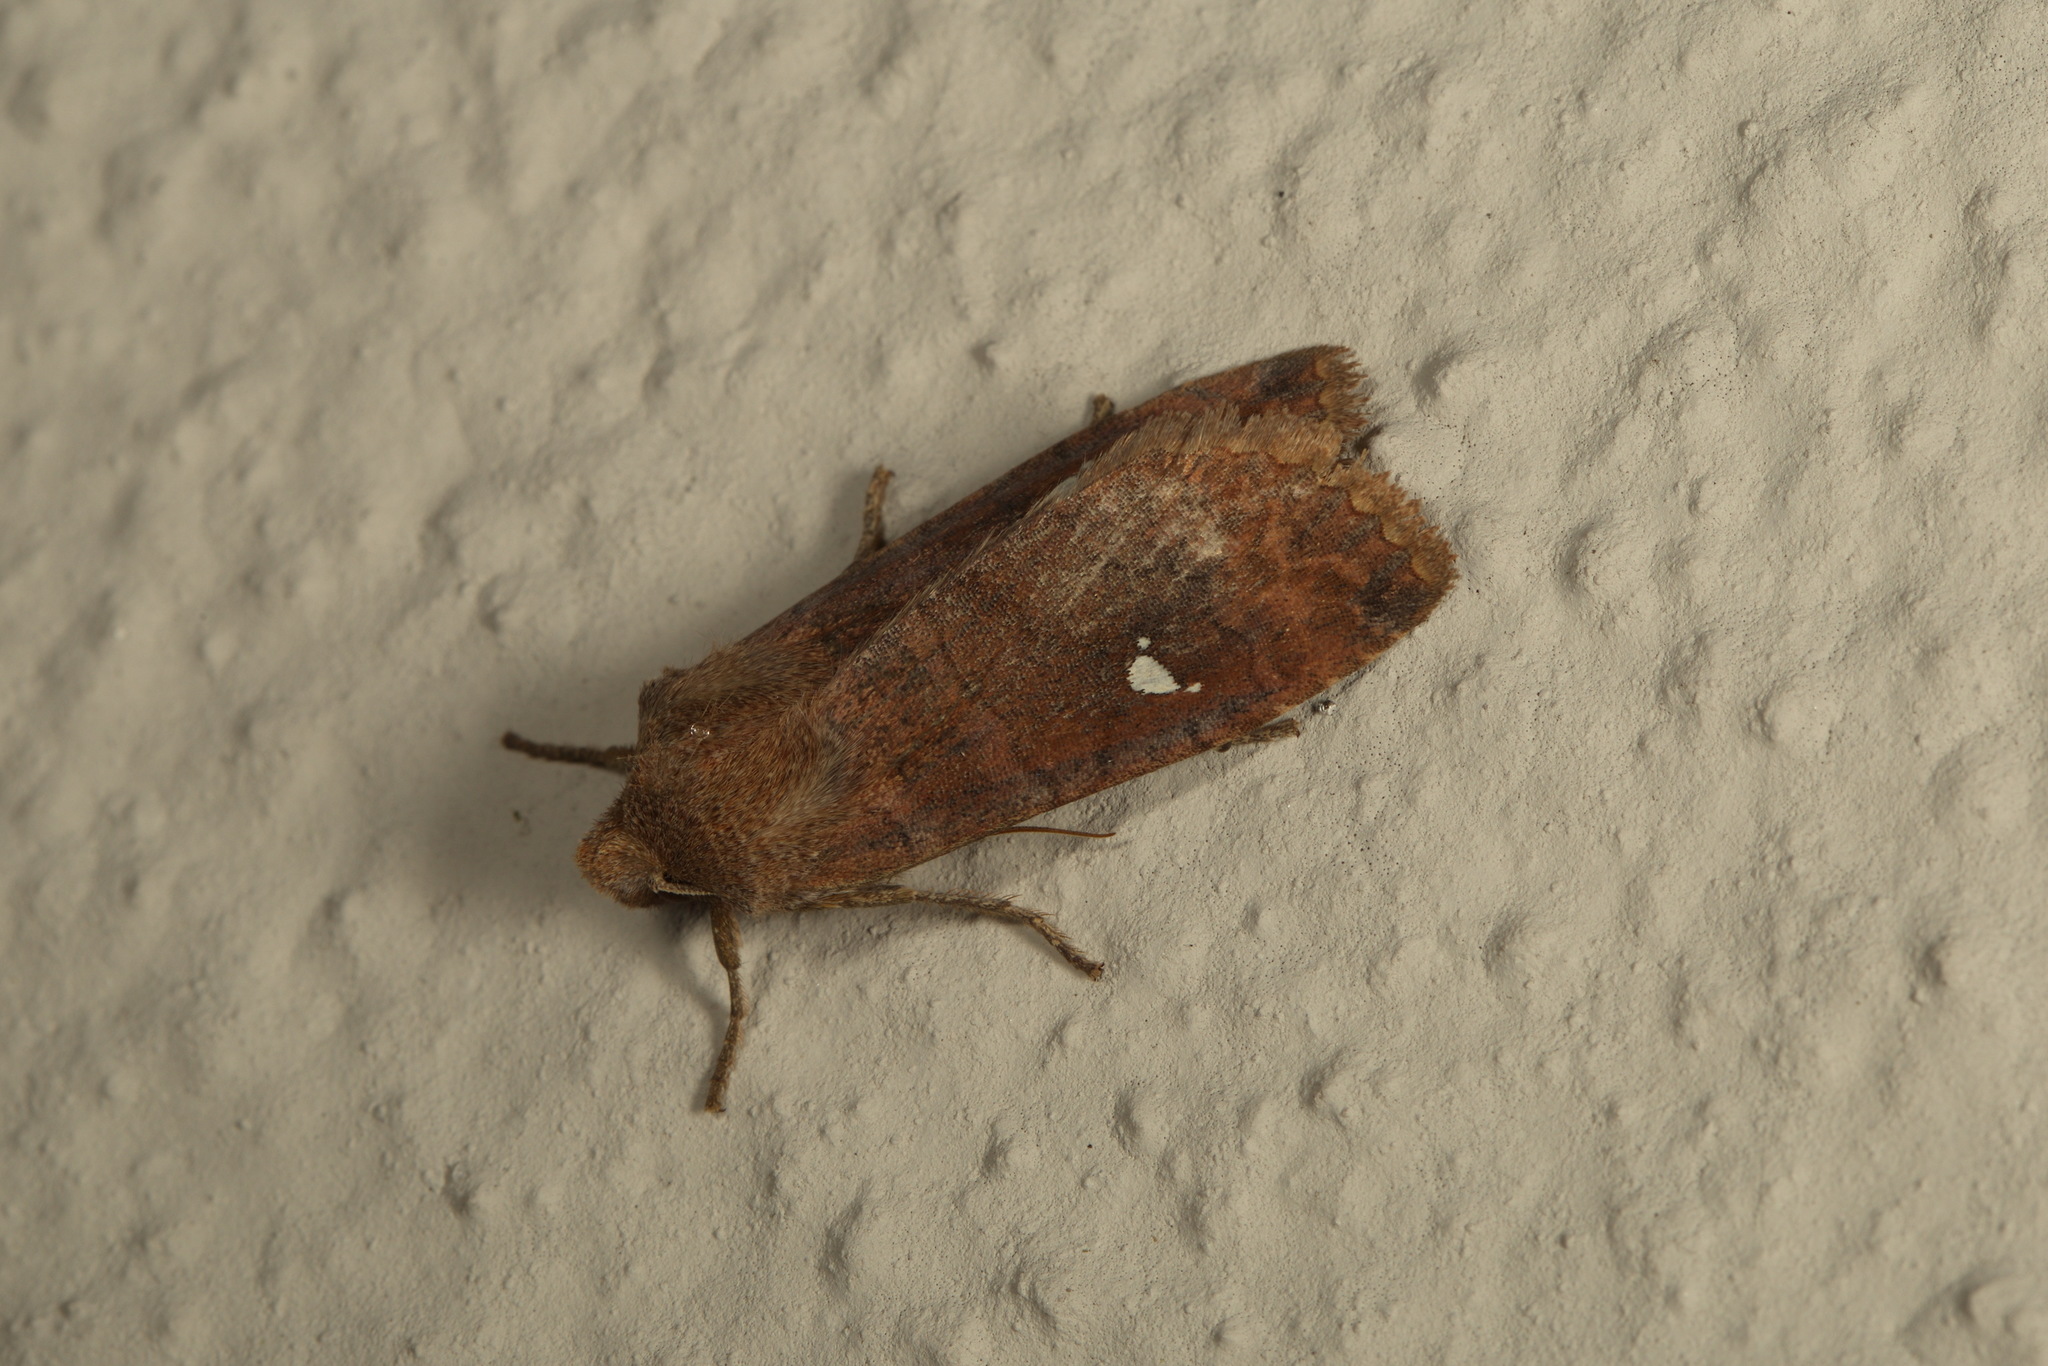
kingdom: Animalia
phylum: Arthropoda
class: Insecta
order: Lepidoptera
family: Noctuidae
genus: Eupsilia
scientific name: Eupsilia transversa
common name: Satellite
